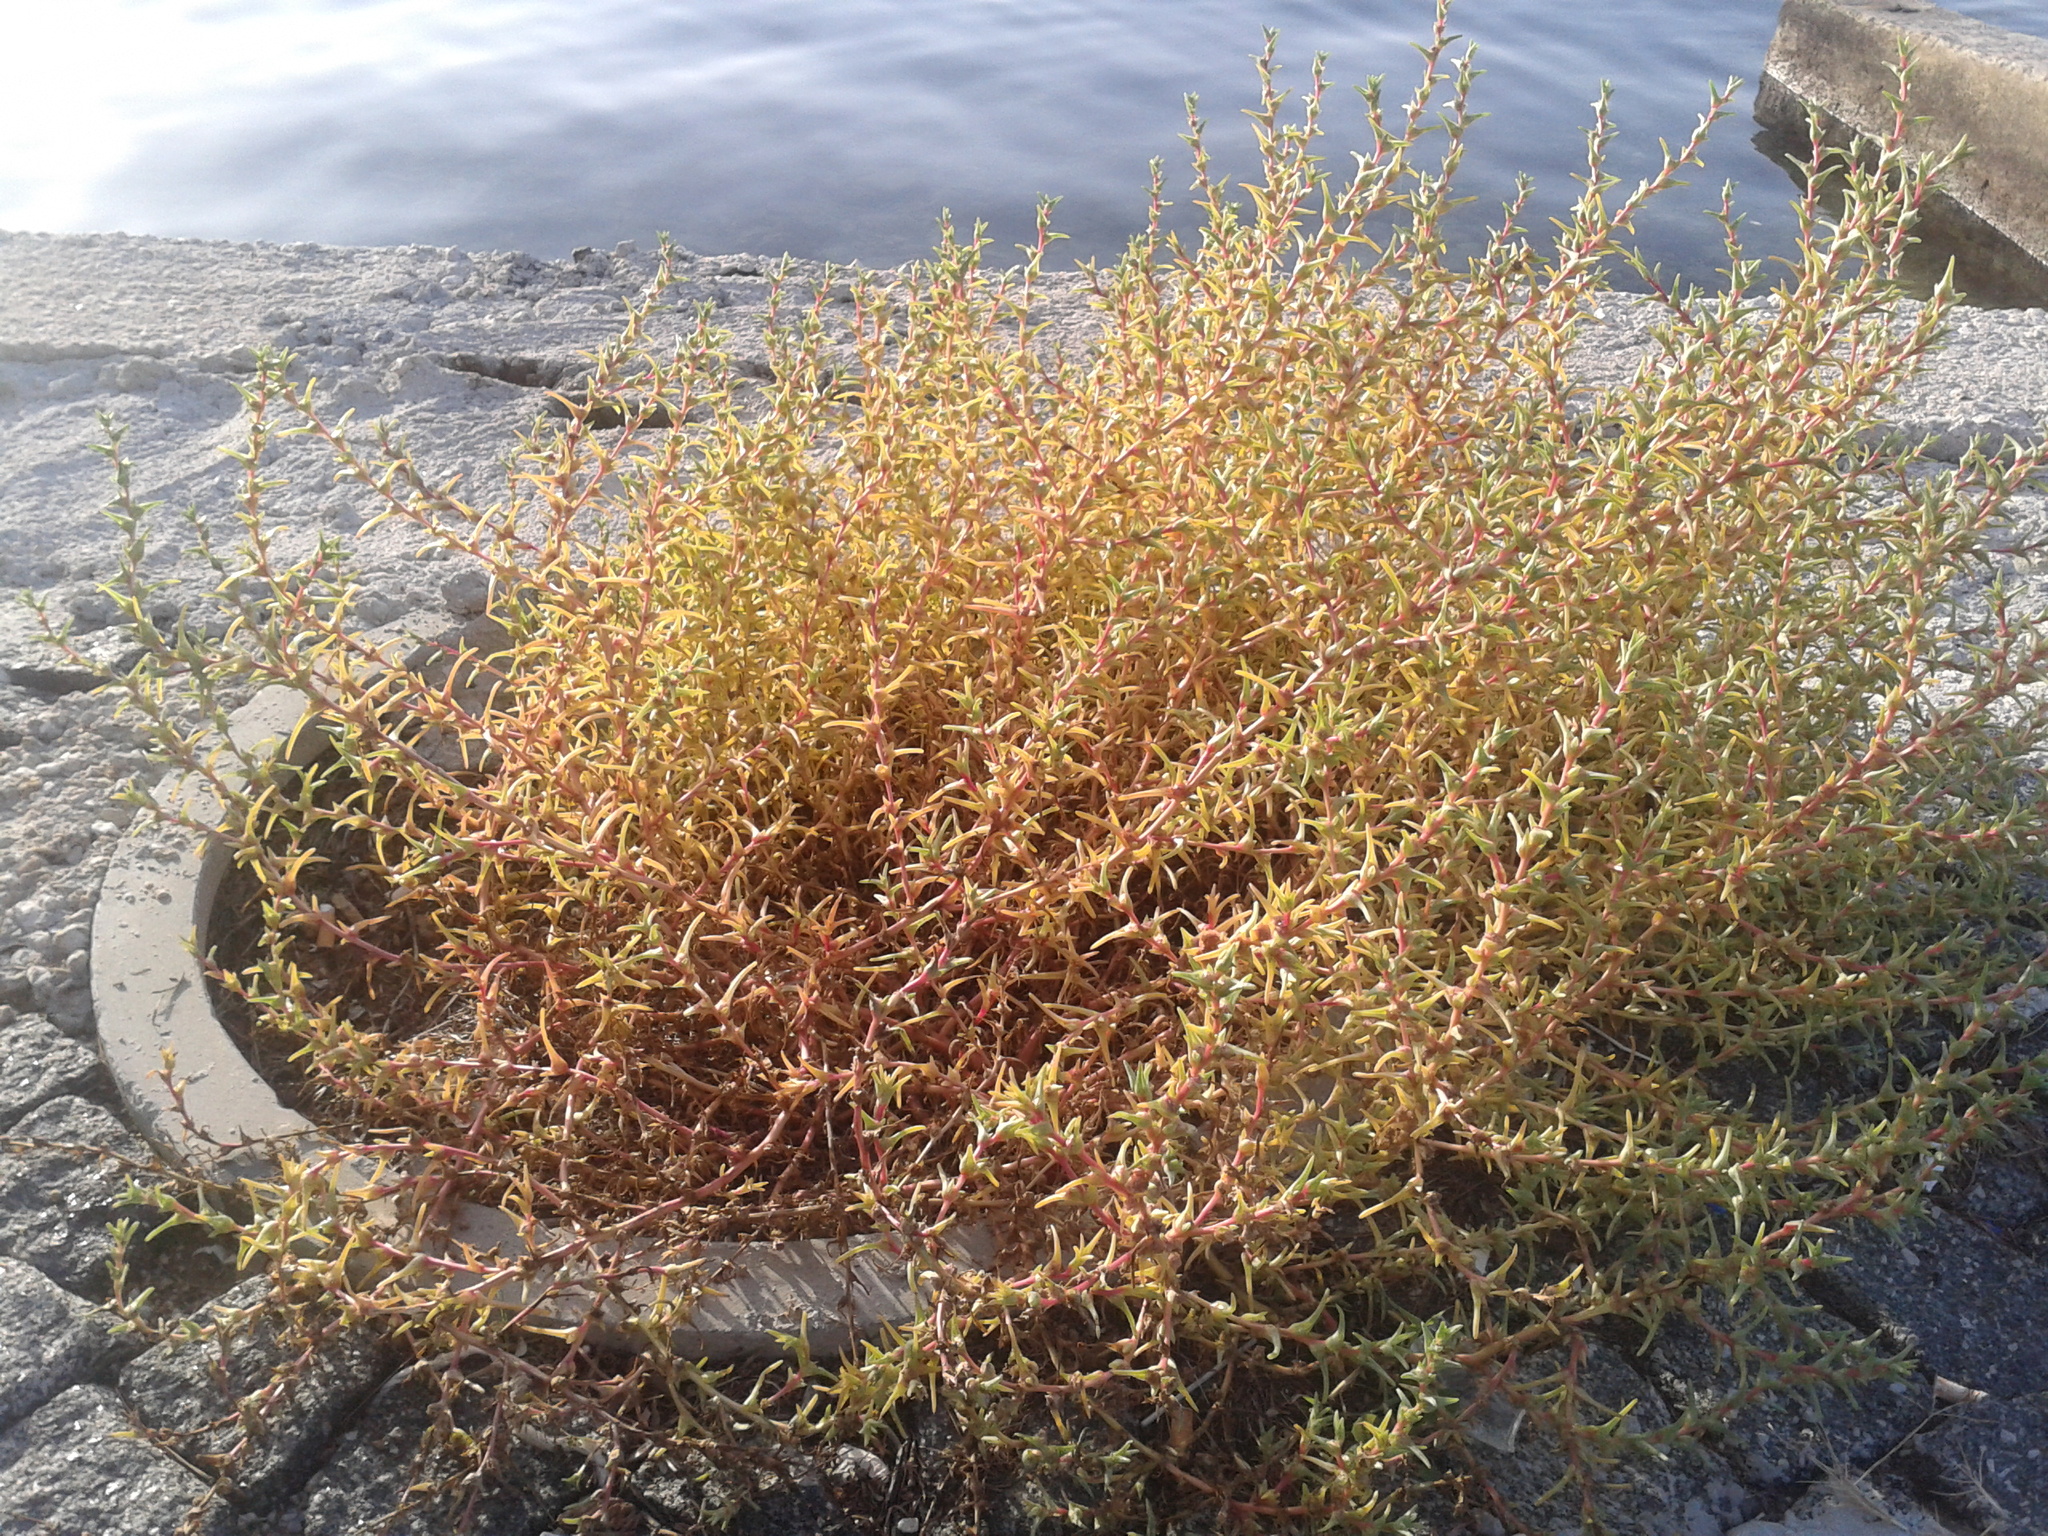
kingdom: Plantae
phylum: Tracheophyta
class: Magnoliopsida
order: Caryophyllales
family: Amaranthaceae
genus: Salsola
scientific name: Salsola soda
